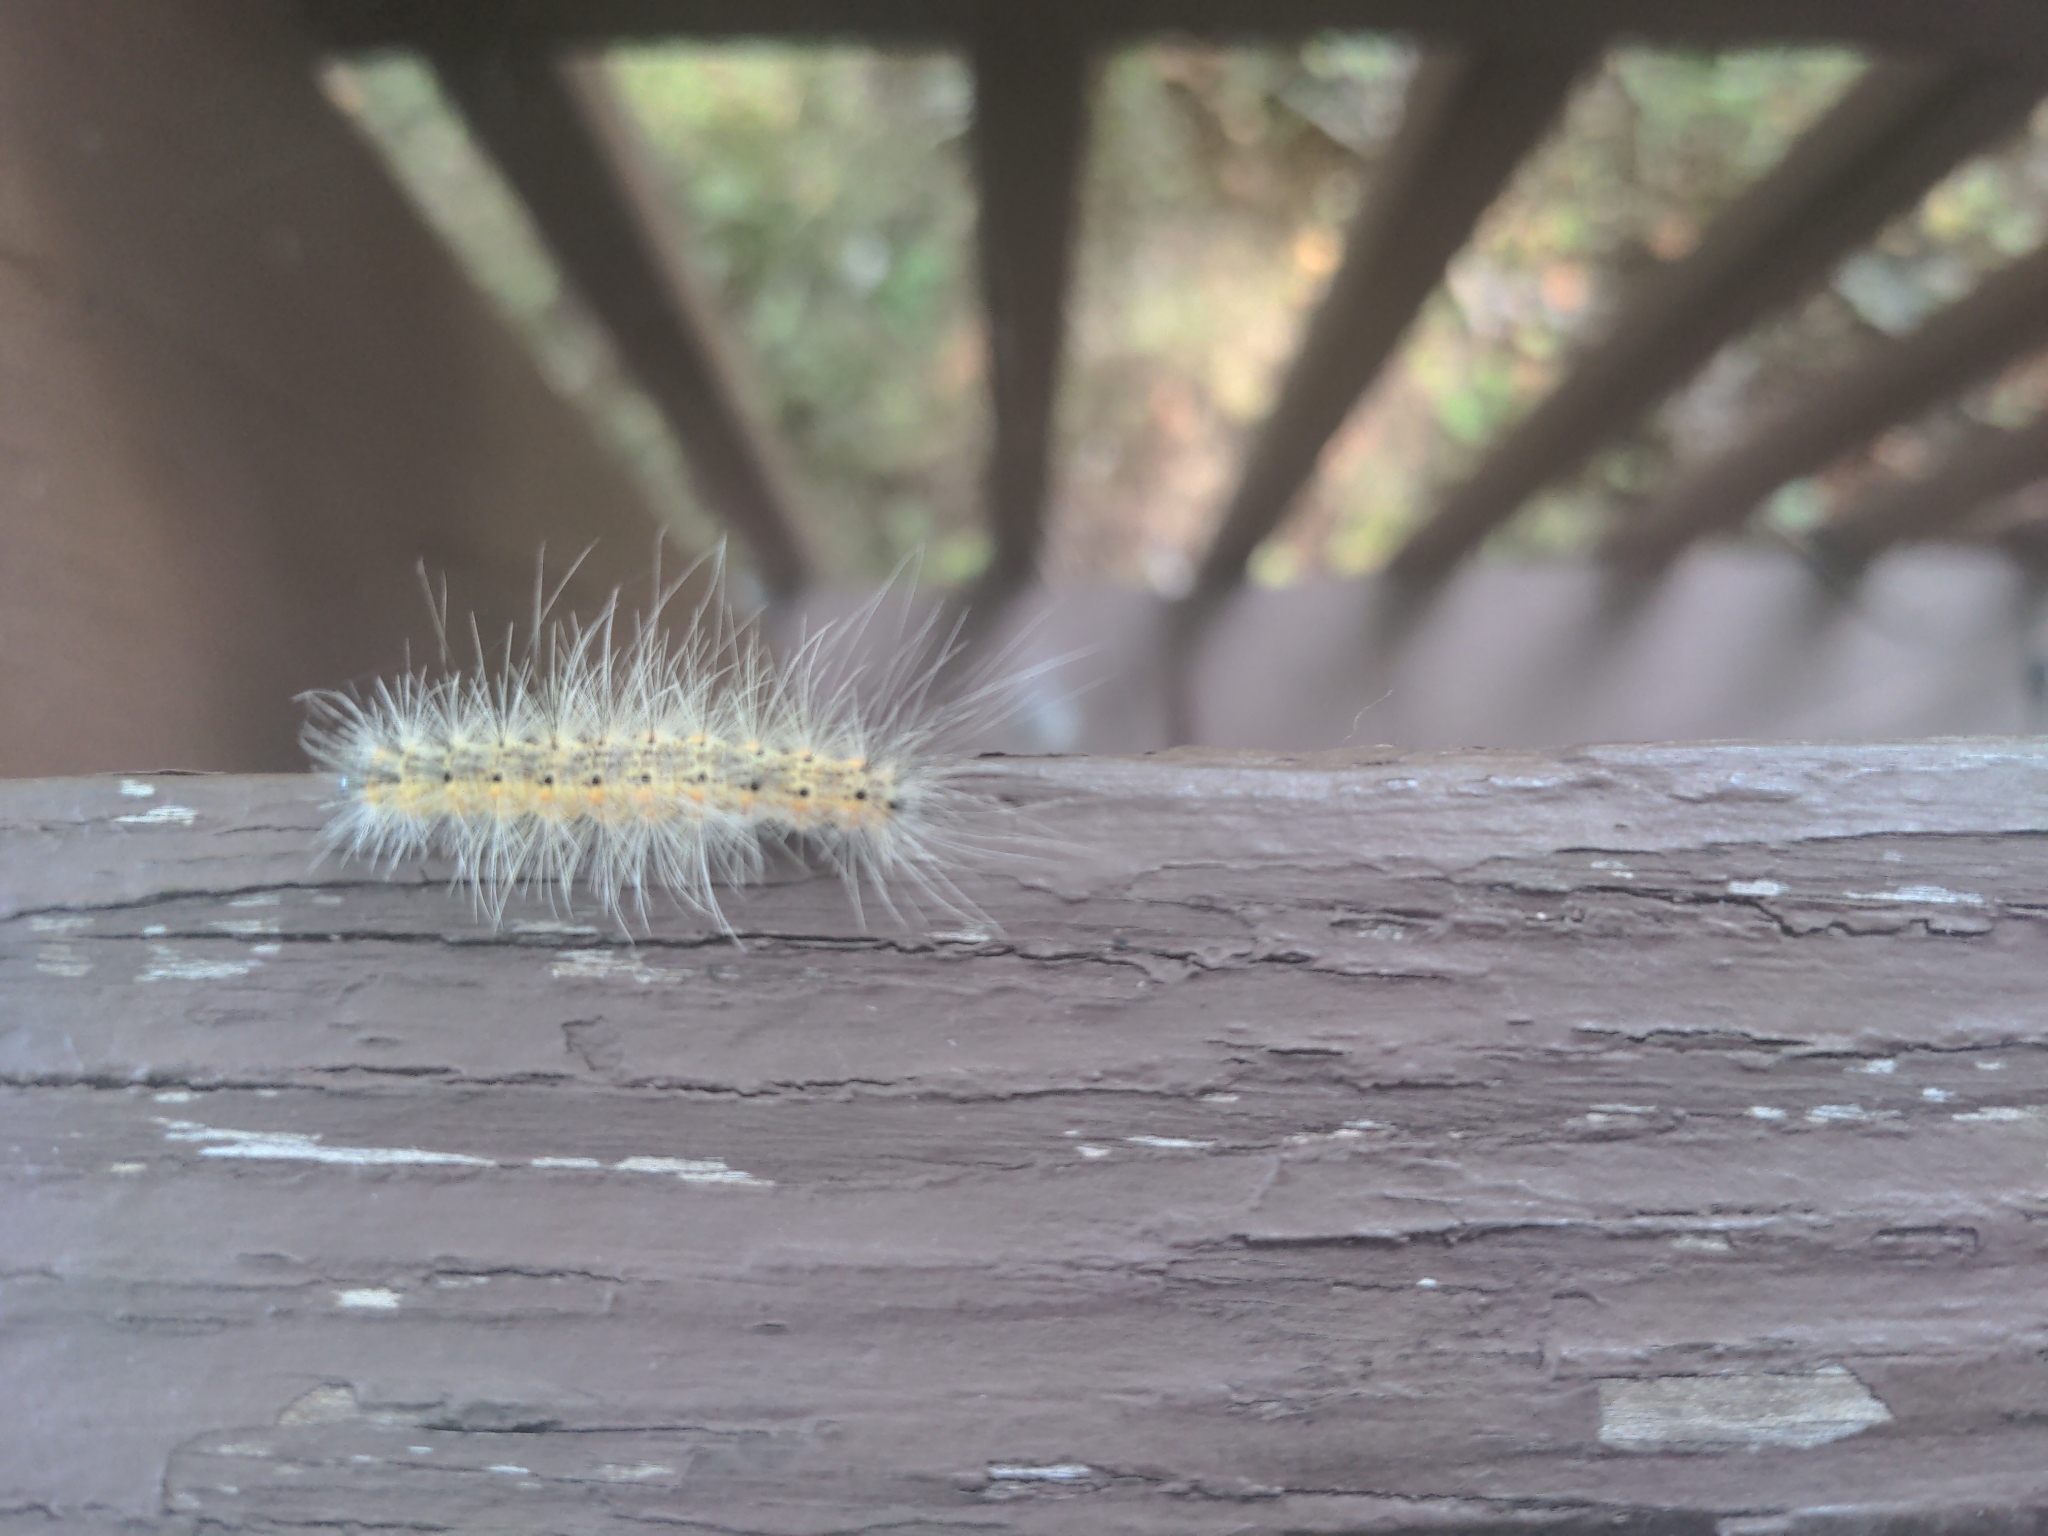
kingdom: Animalia
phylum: Arthropoda
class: Insecta
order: Lepidoptera
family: Erebidae
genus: Hyphantria
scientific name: Hyphantria cunea
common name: American white moth
